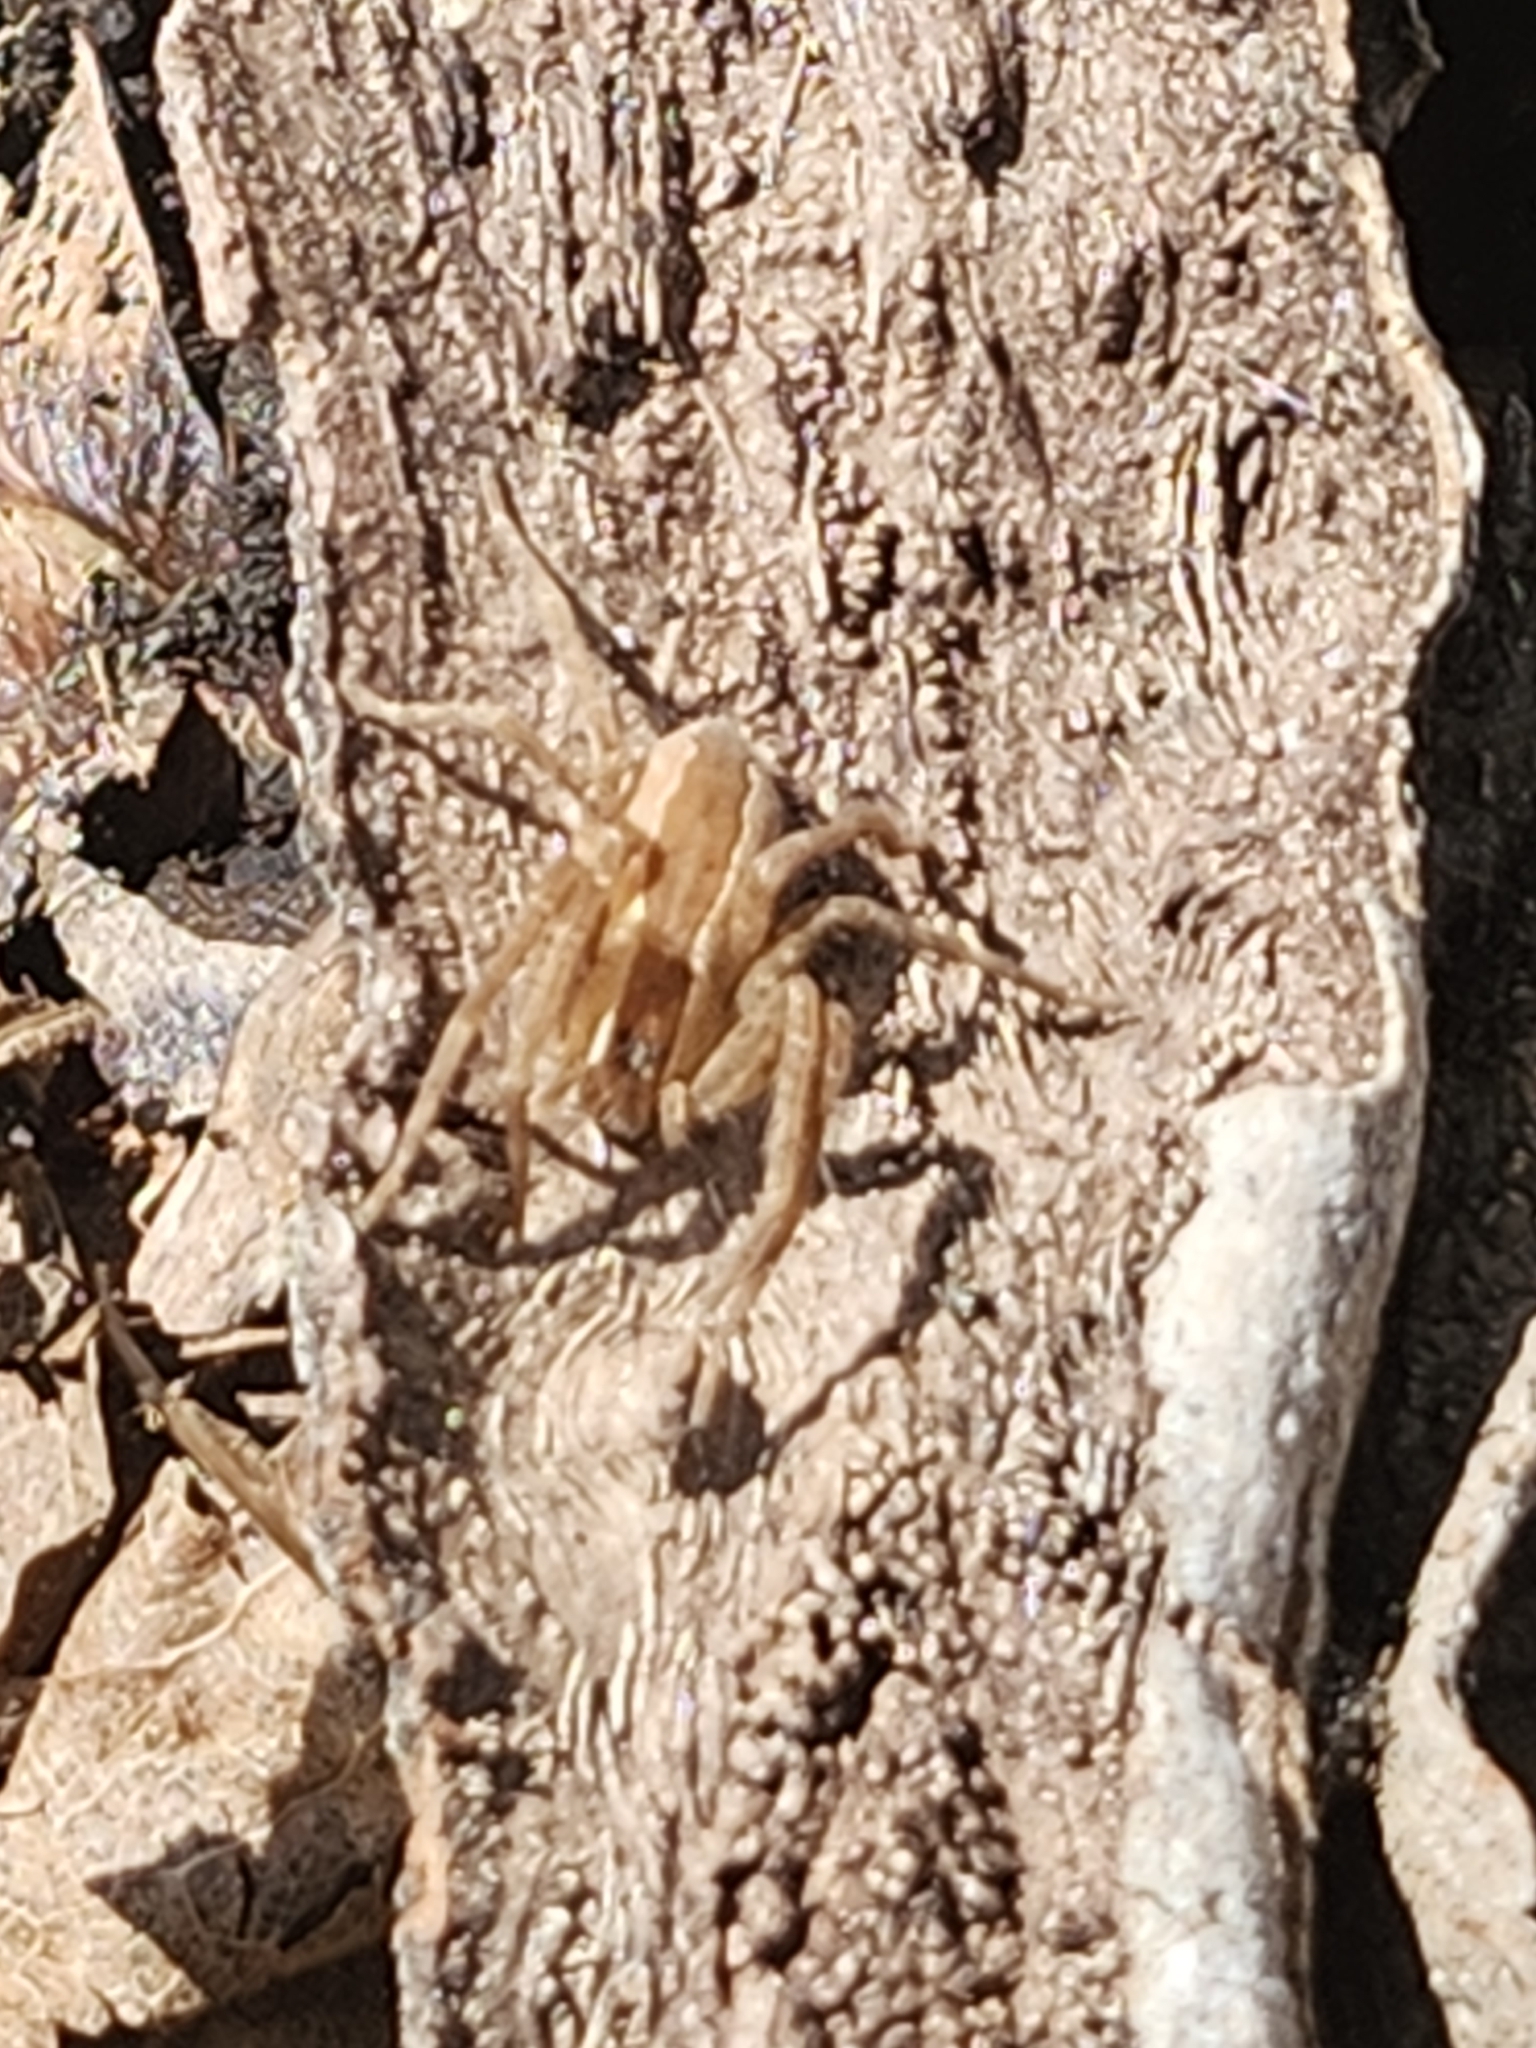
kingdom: Animalia
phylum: Arthropoda
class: Arachnida
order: Araneae
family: Pisauridae
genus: Pisaurina
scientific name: Pisaurina mira
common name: American nursery web spider
